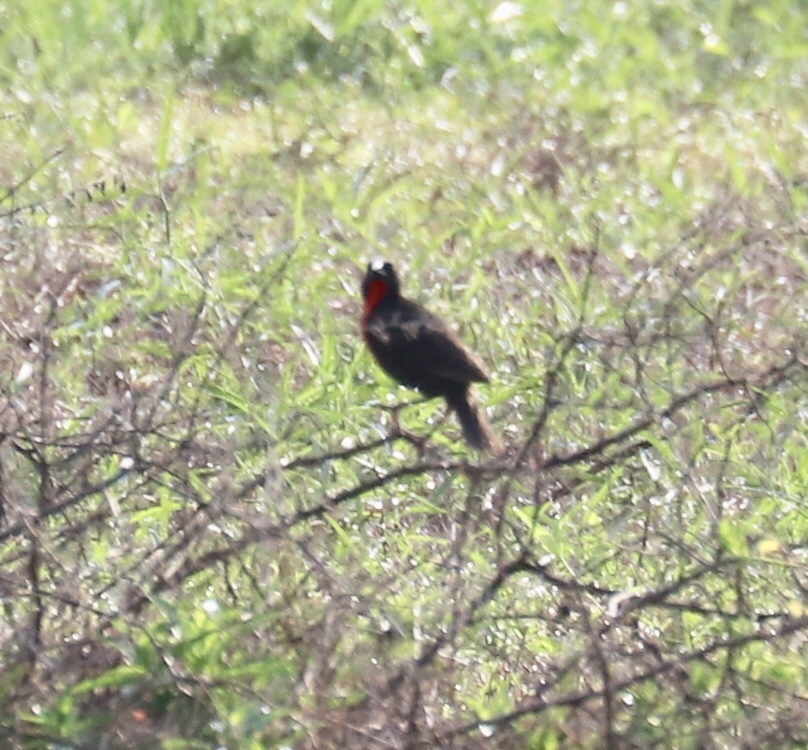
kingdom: Animalia
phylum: Chordata
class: Aves
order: Passeriformes
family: Icteridae
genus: Sturnella
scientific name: Sturnella militaris
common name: Red-breasted blackbird
